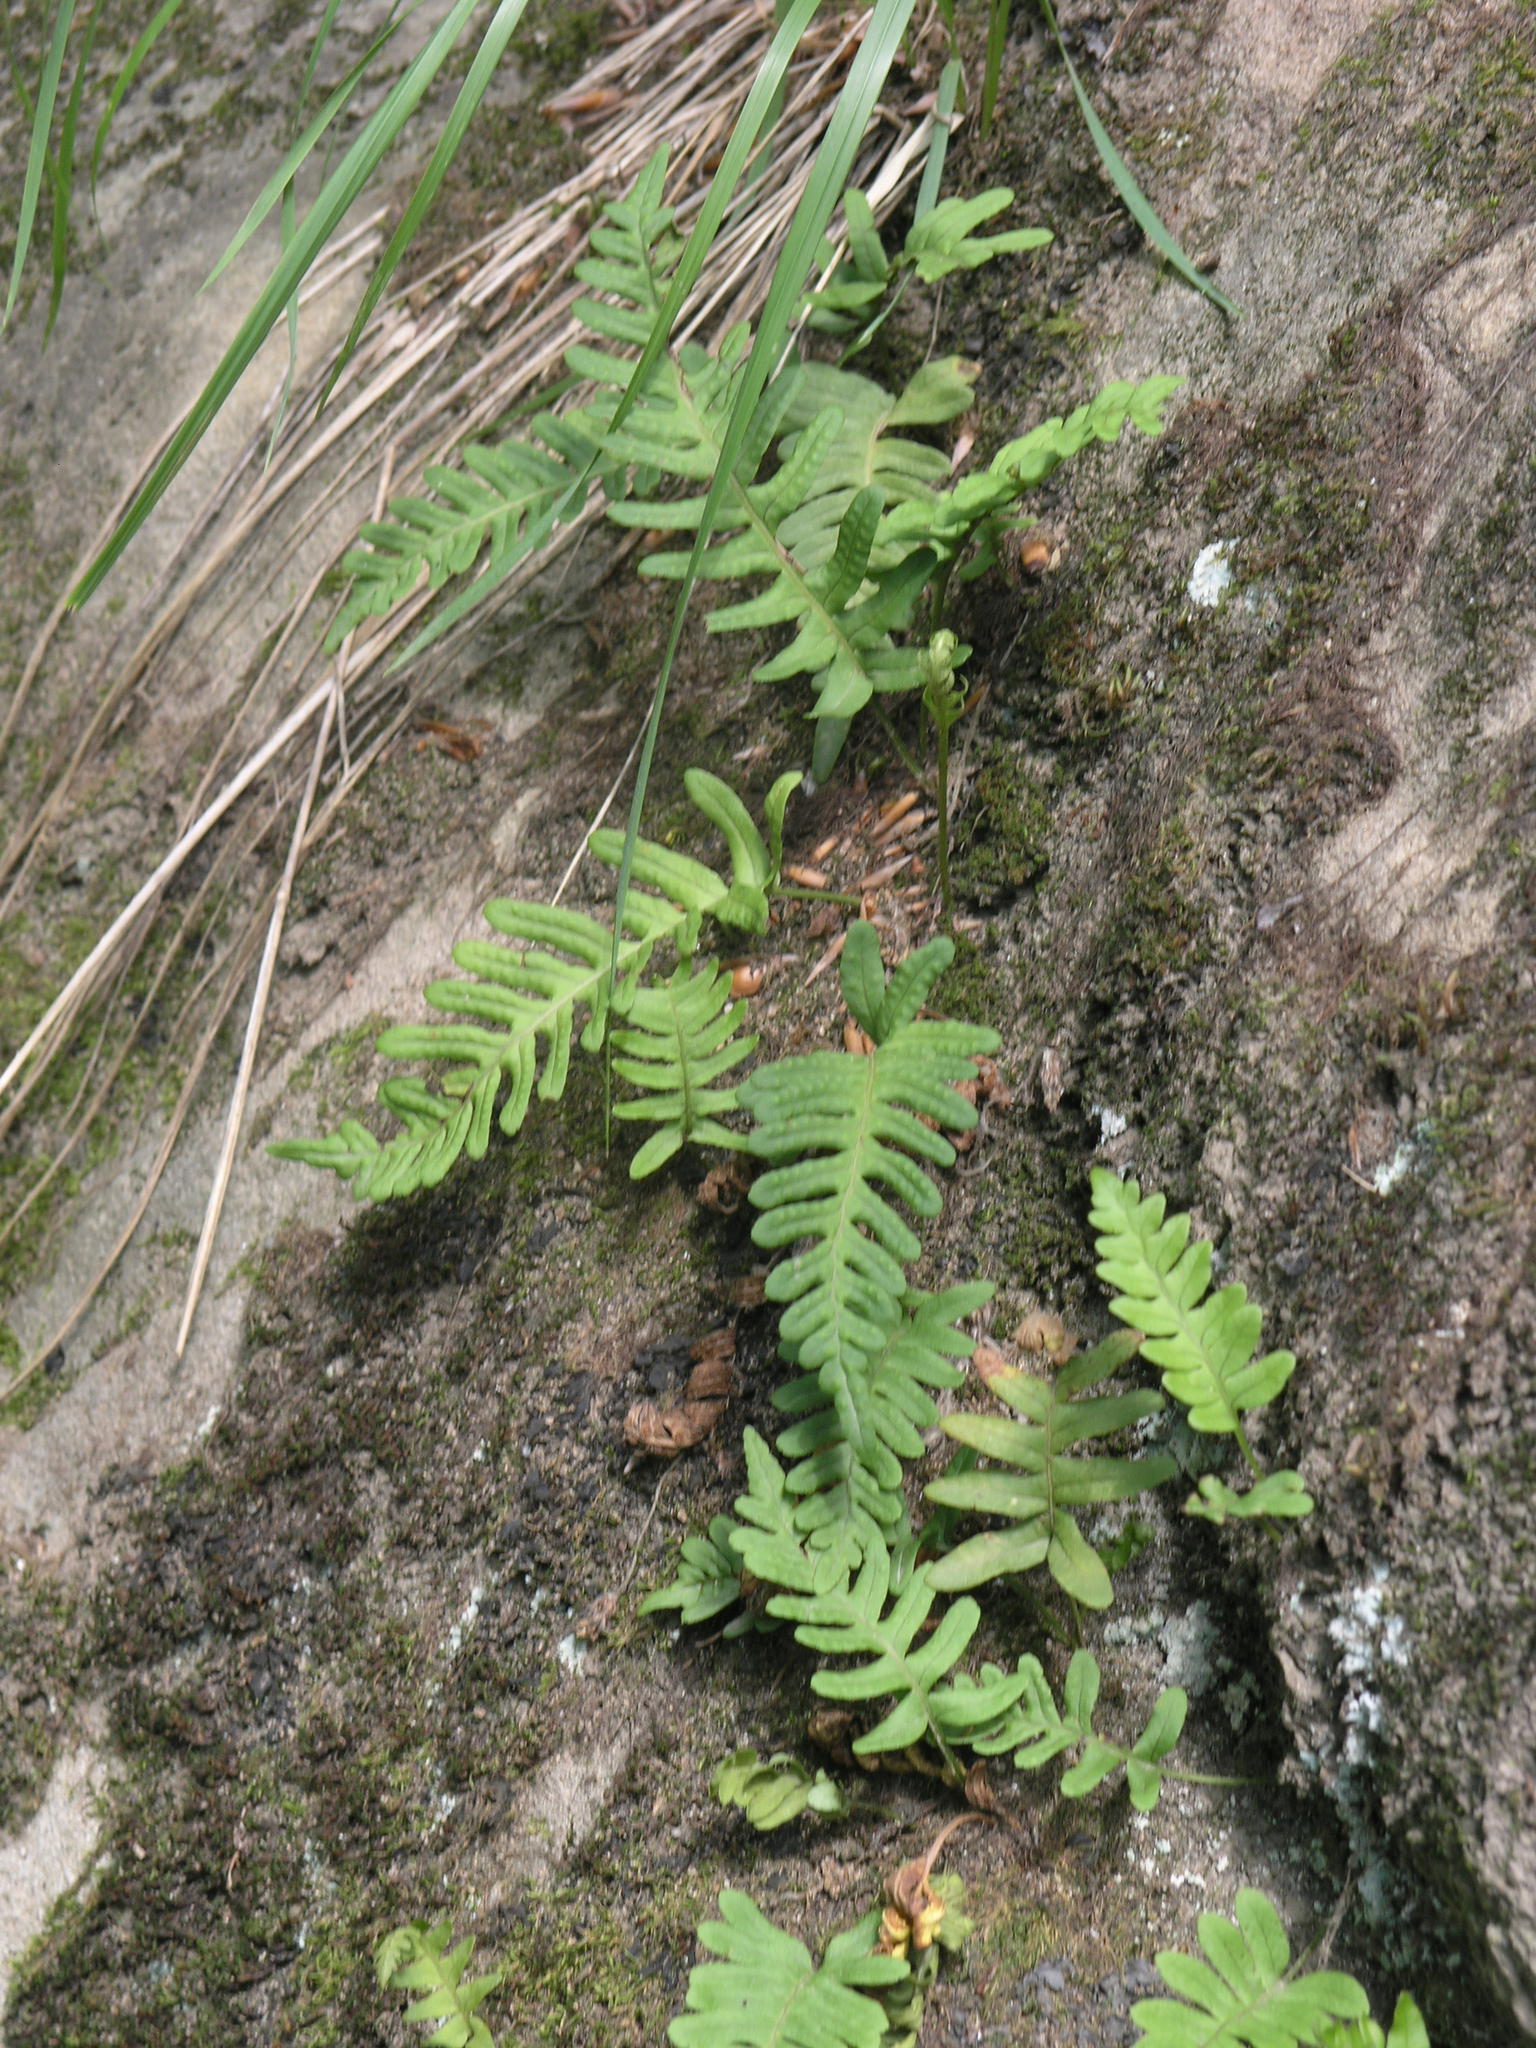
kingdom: Plantae
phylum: Tracheophyta
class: Polypodiopsida
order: Polypodiales
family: Polypodiaceae
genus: Polypodium
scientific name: Polypodium vulgare
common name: Common polypody
